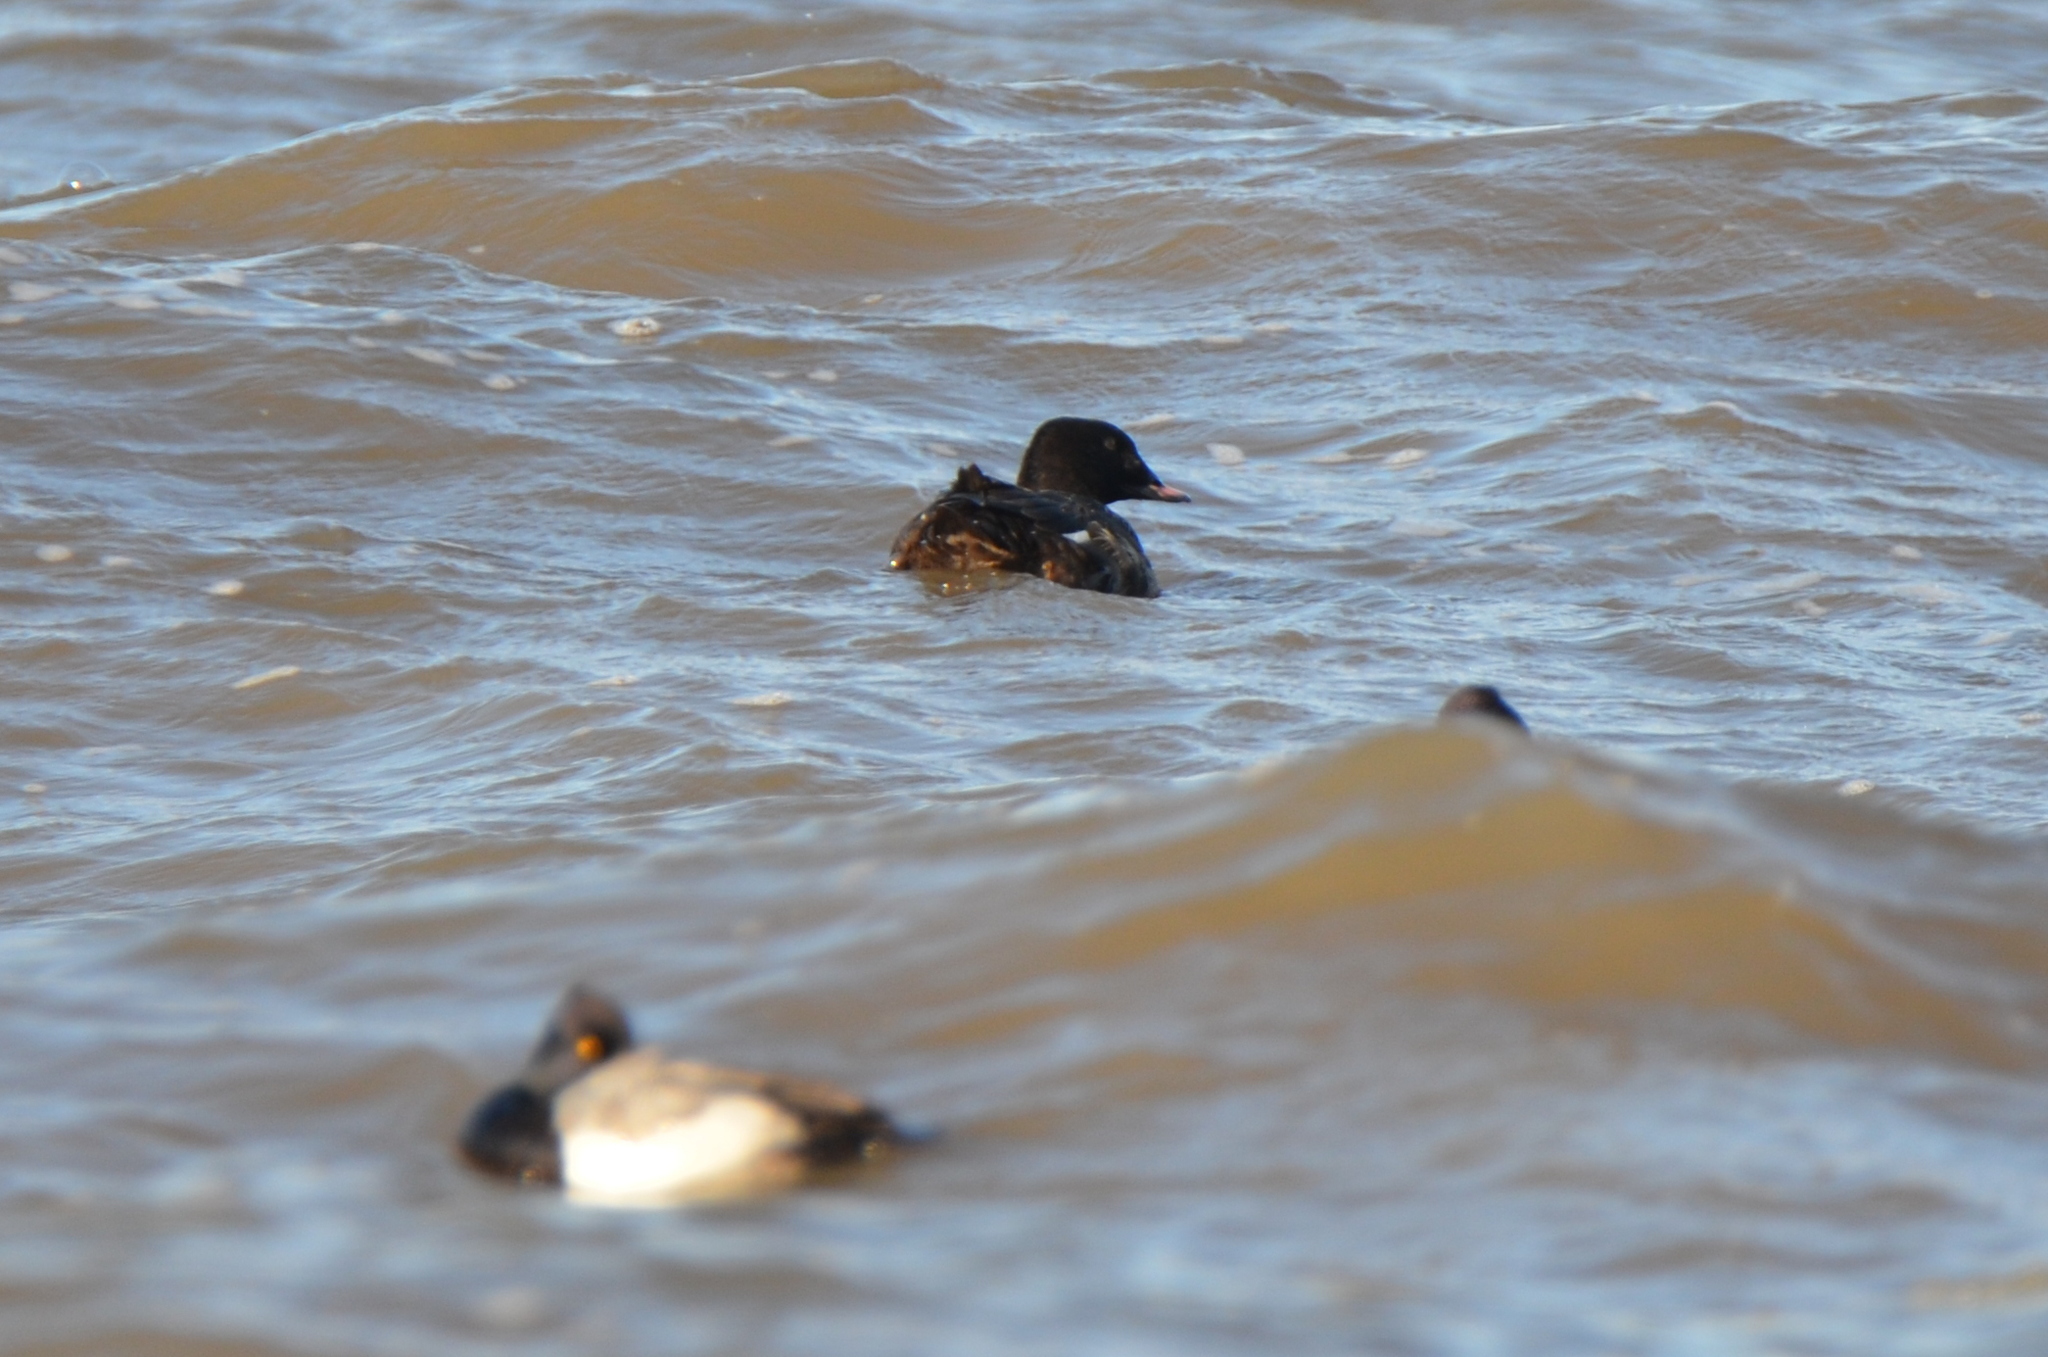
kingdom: Animalia
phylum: Chordata
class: Aves
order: Anseriformes
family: Anatidae
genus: Melanitta
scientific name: Melanitta deglandi
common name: White-winged scoter
